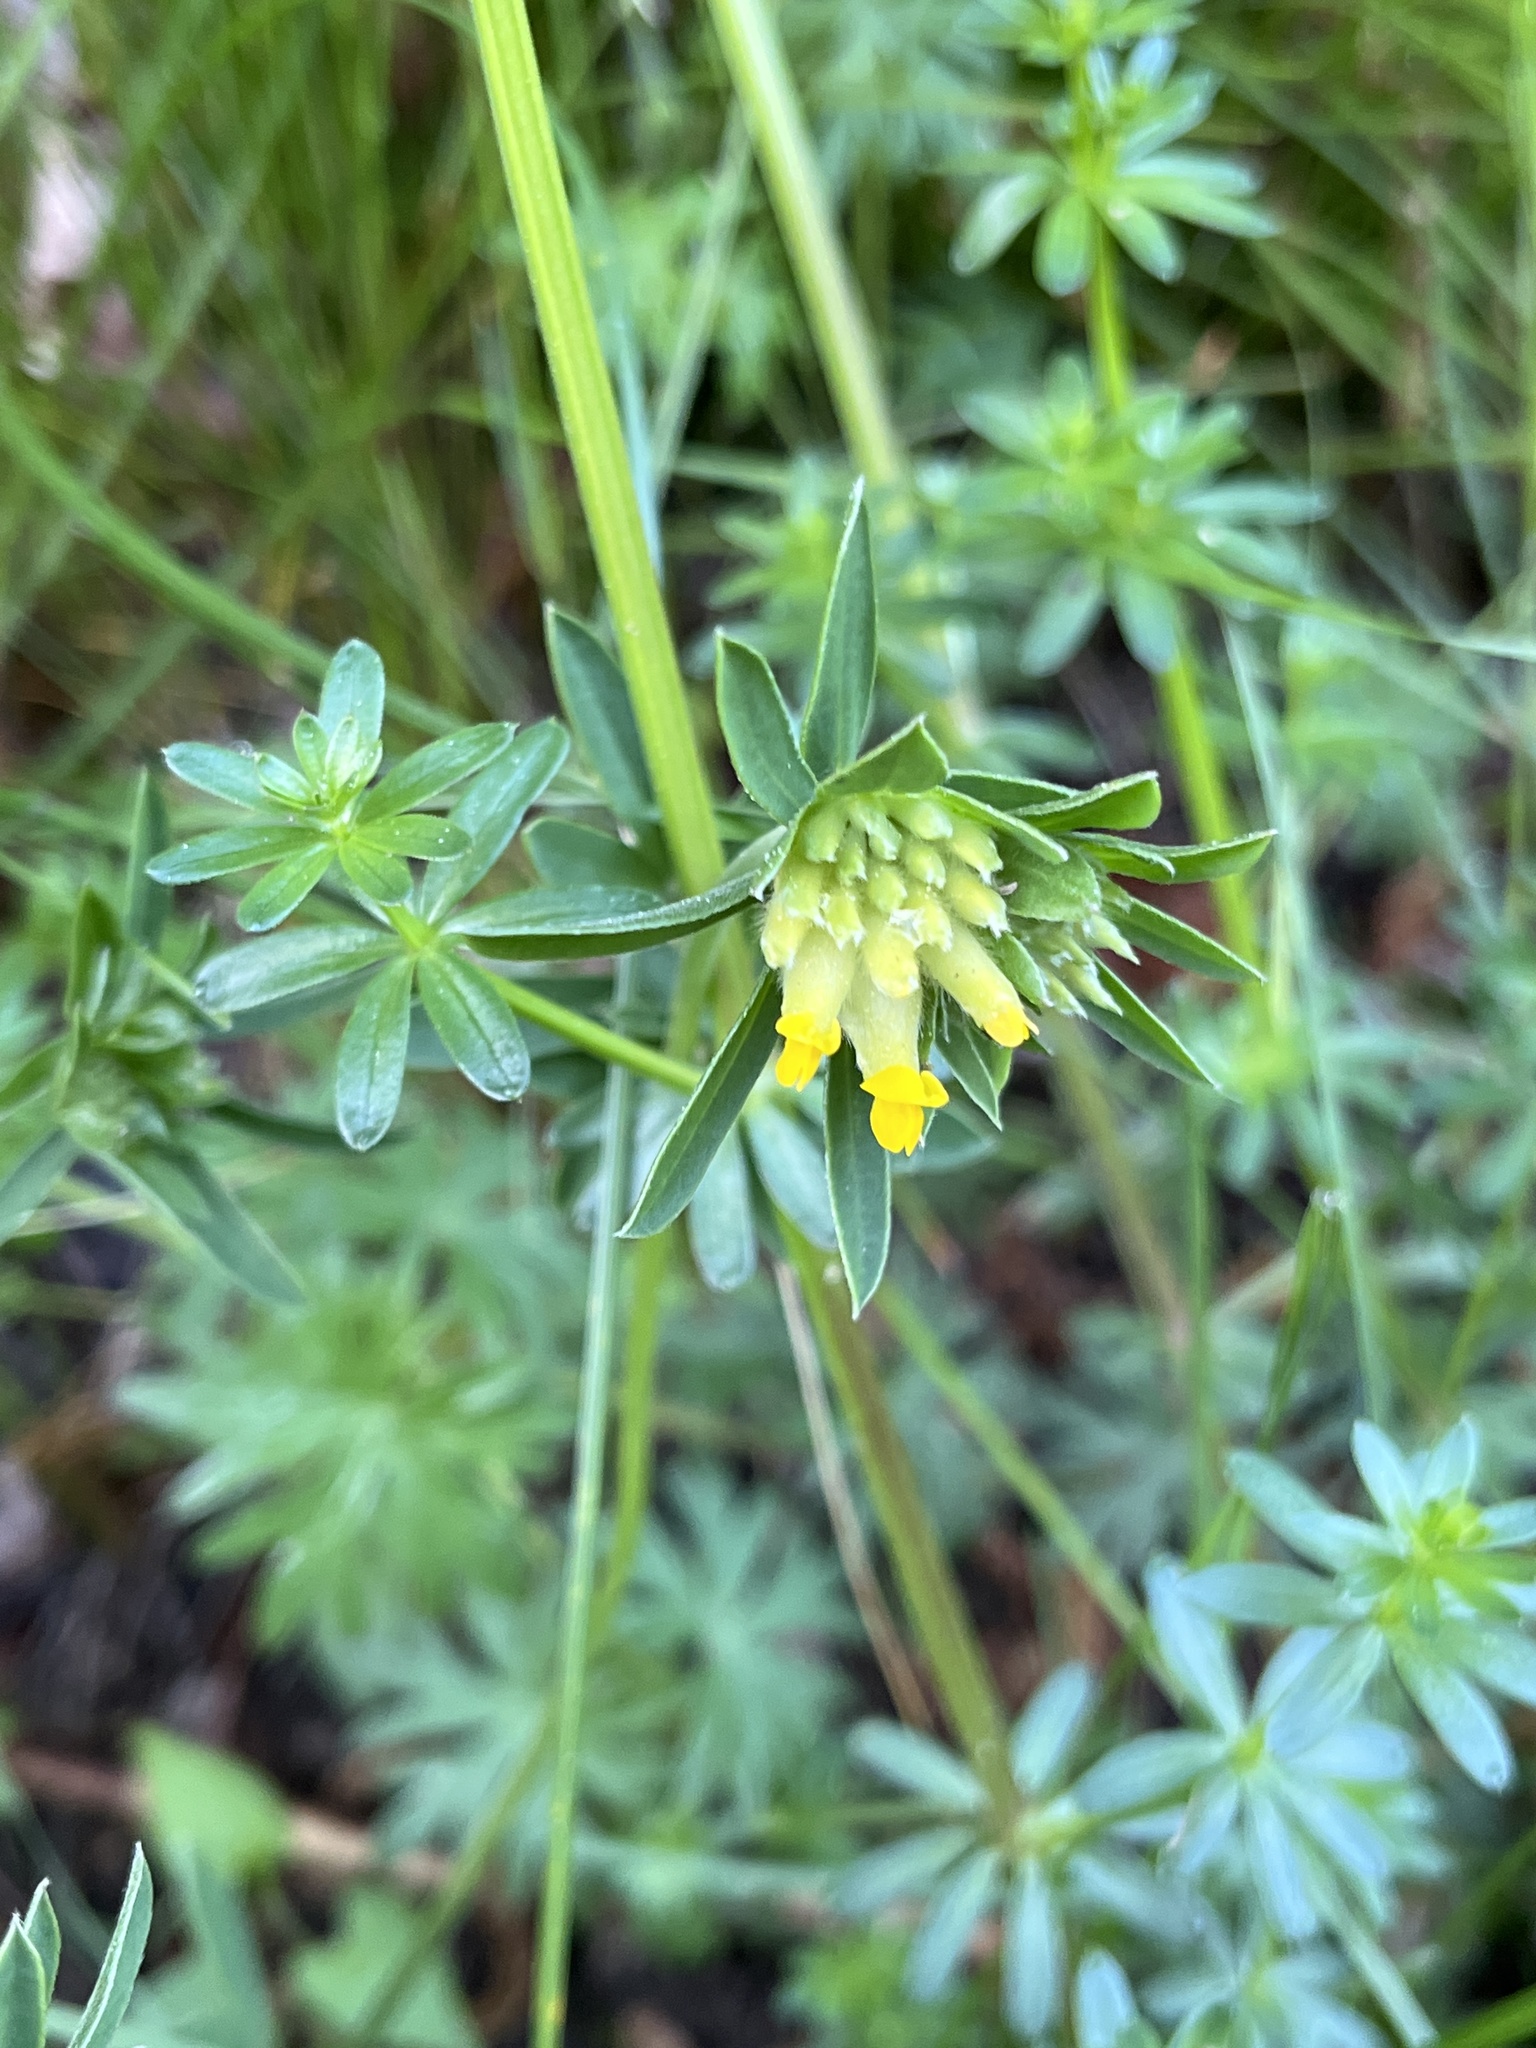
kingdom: Plantae
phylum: Tracheophyta
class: Magnoliopsida
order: Fabales
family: Fabaceae
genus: Anthyllis
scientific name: Anthyllis vulneraria
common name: Kidney vetch
